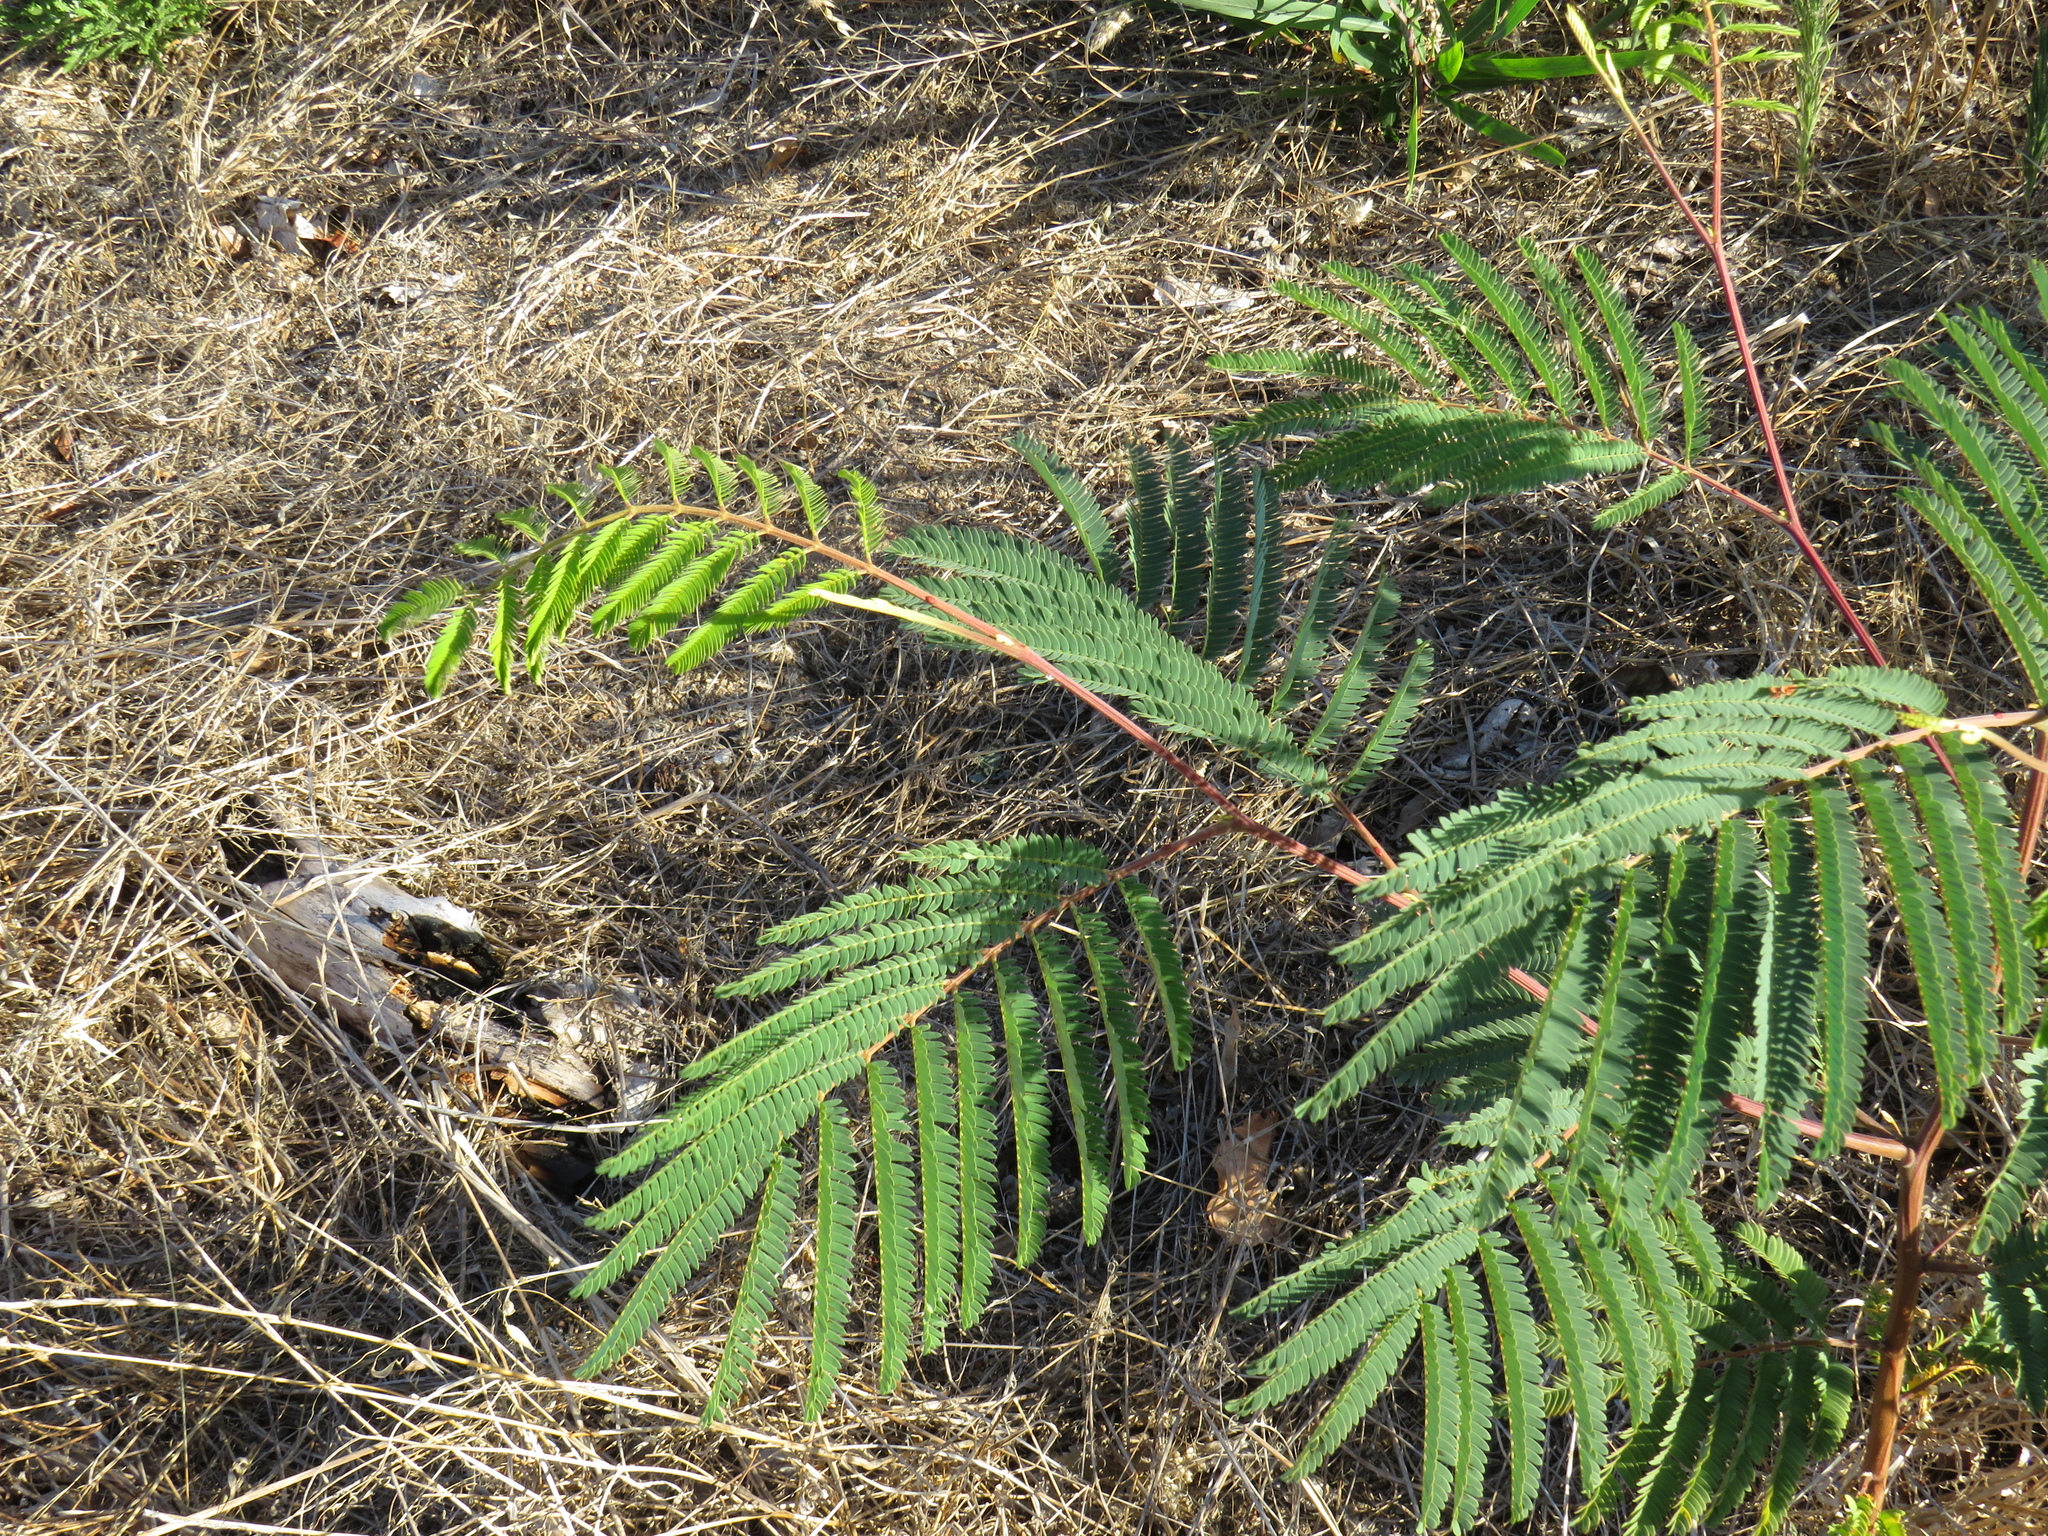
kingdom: Plantae
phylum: Tracheophyta
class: Magnoliopsida
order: Fabales
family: Fabaceae
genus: Paraserianthes
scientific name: Paraserianthes lophantha
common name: Plume albizia
